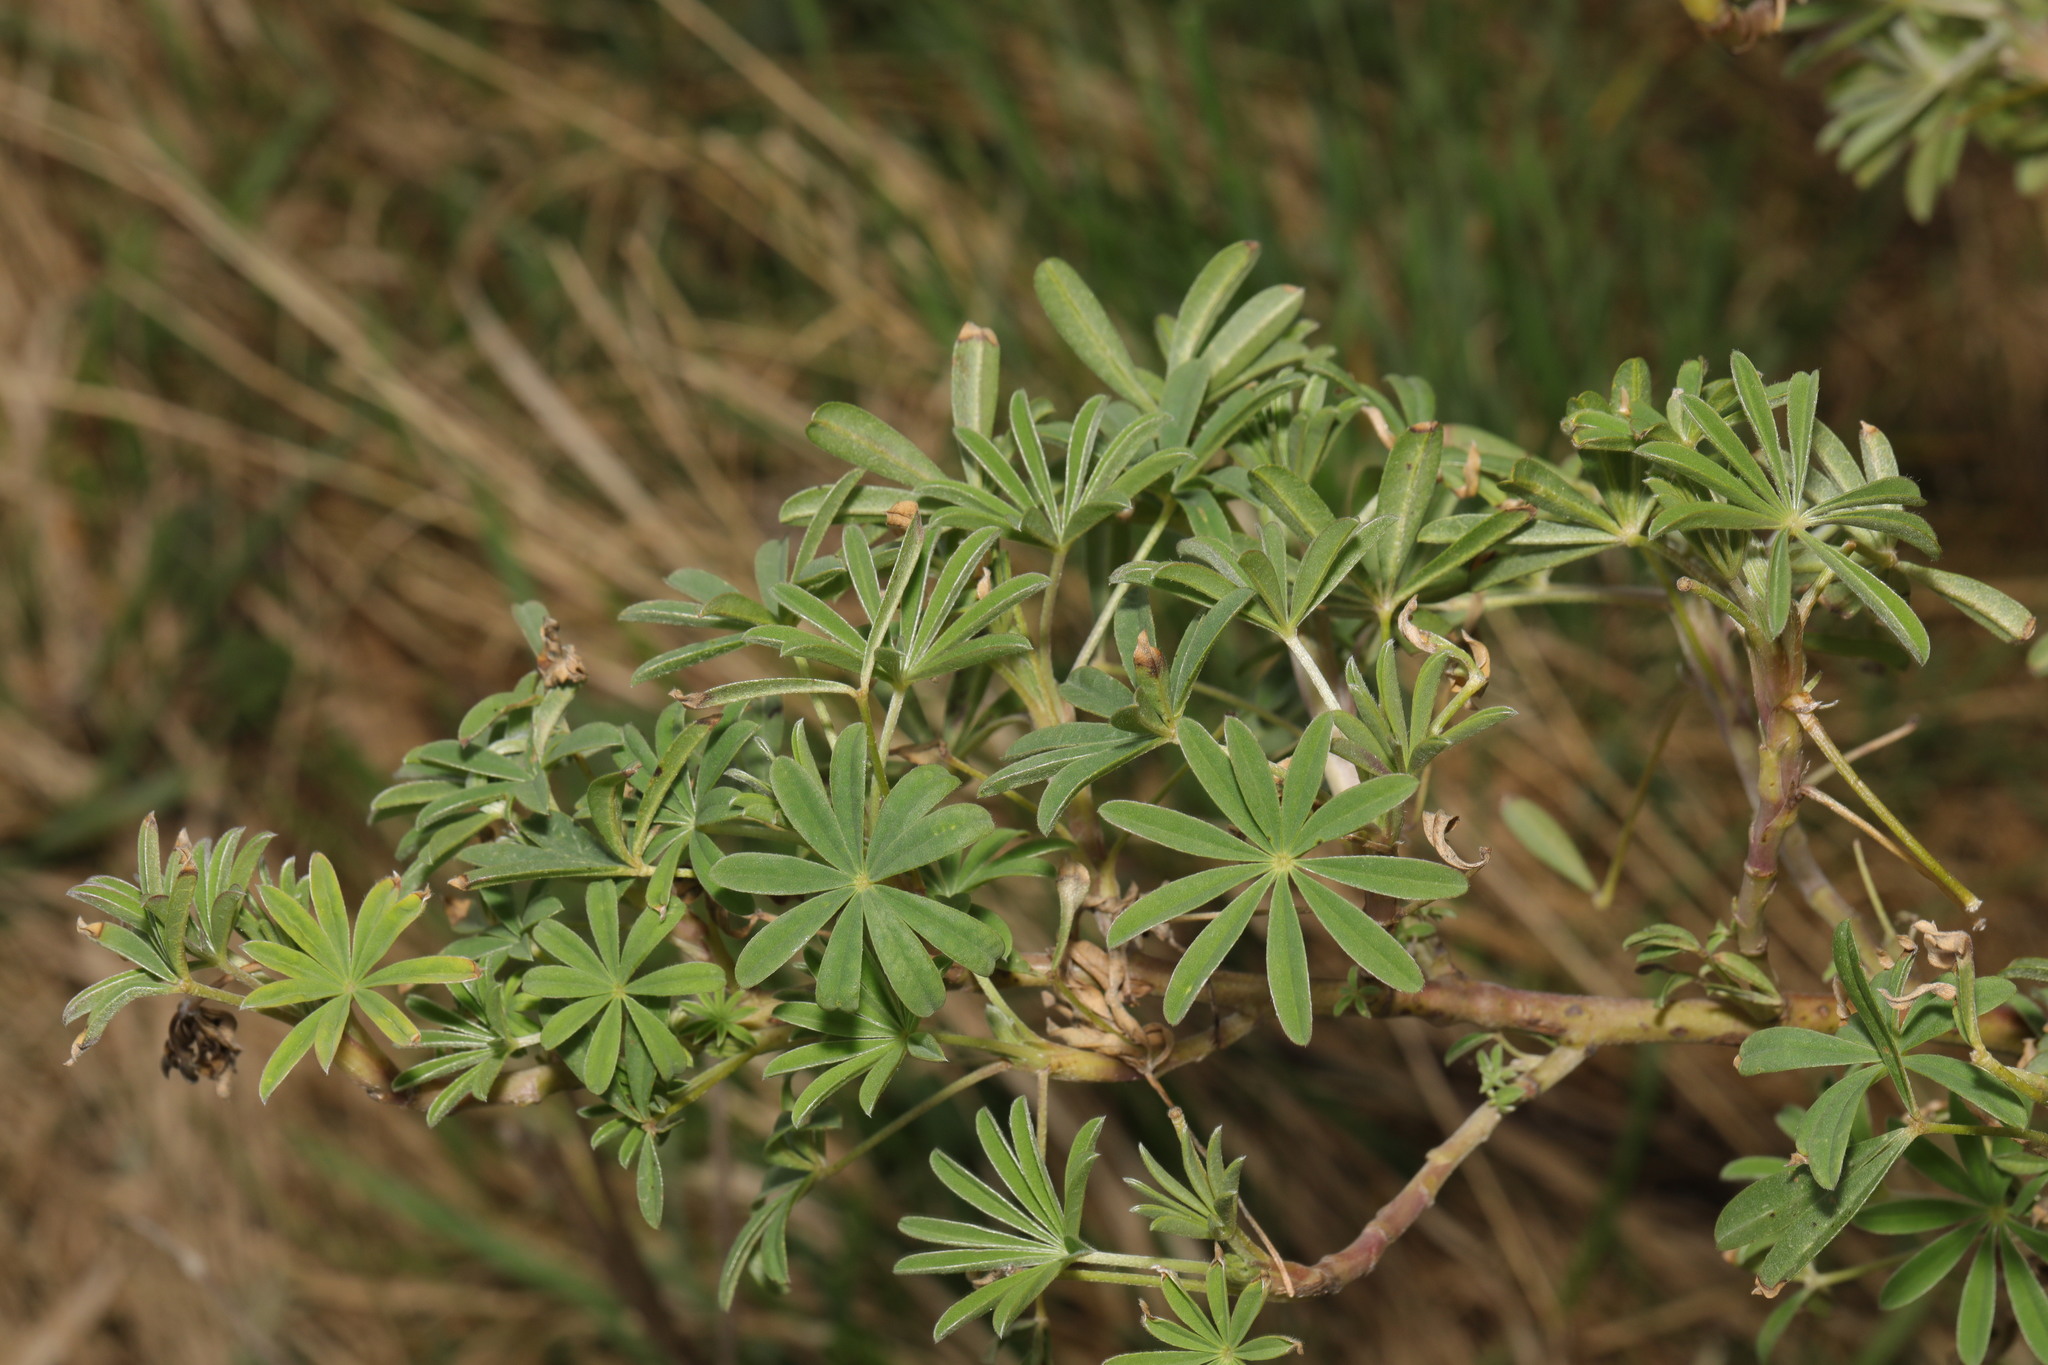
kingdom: Plantae
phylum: Tracheophyta
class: Magnoliopsida
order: Fabales
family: Fabaceae
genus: Lupinus
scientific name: Lupinus arboreus
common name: Yellow bush lupine
